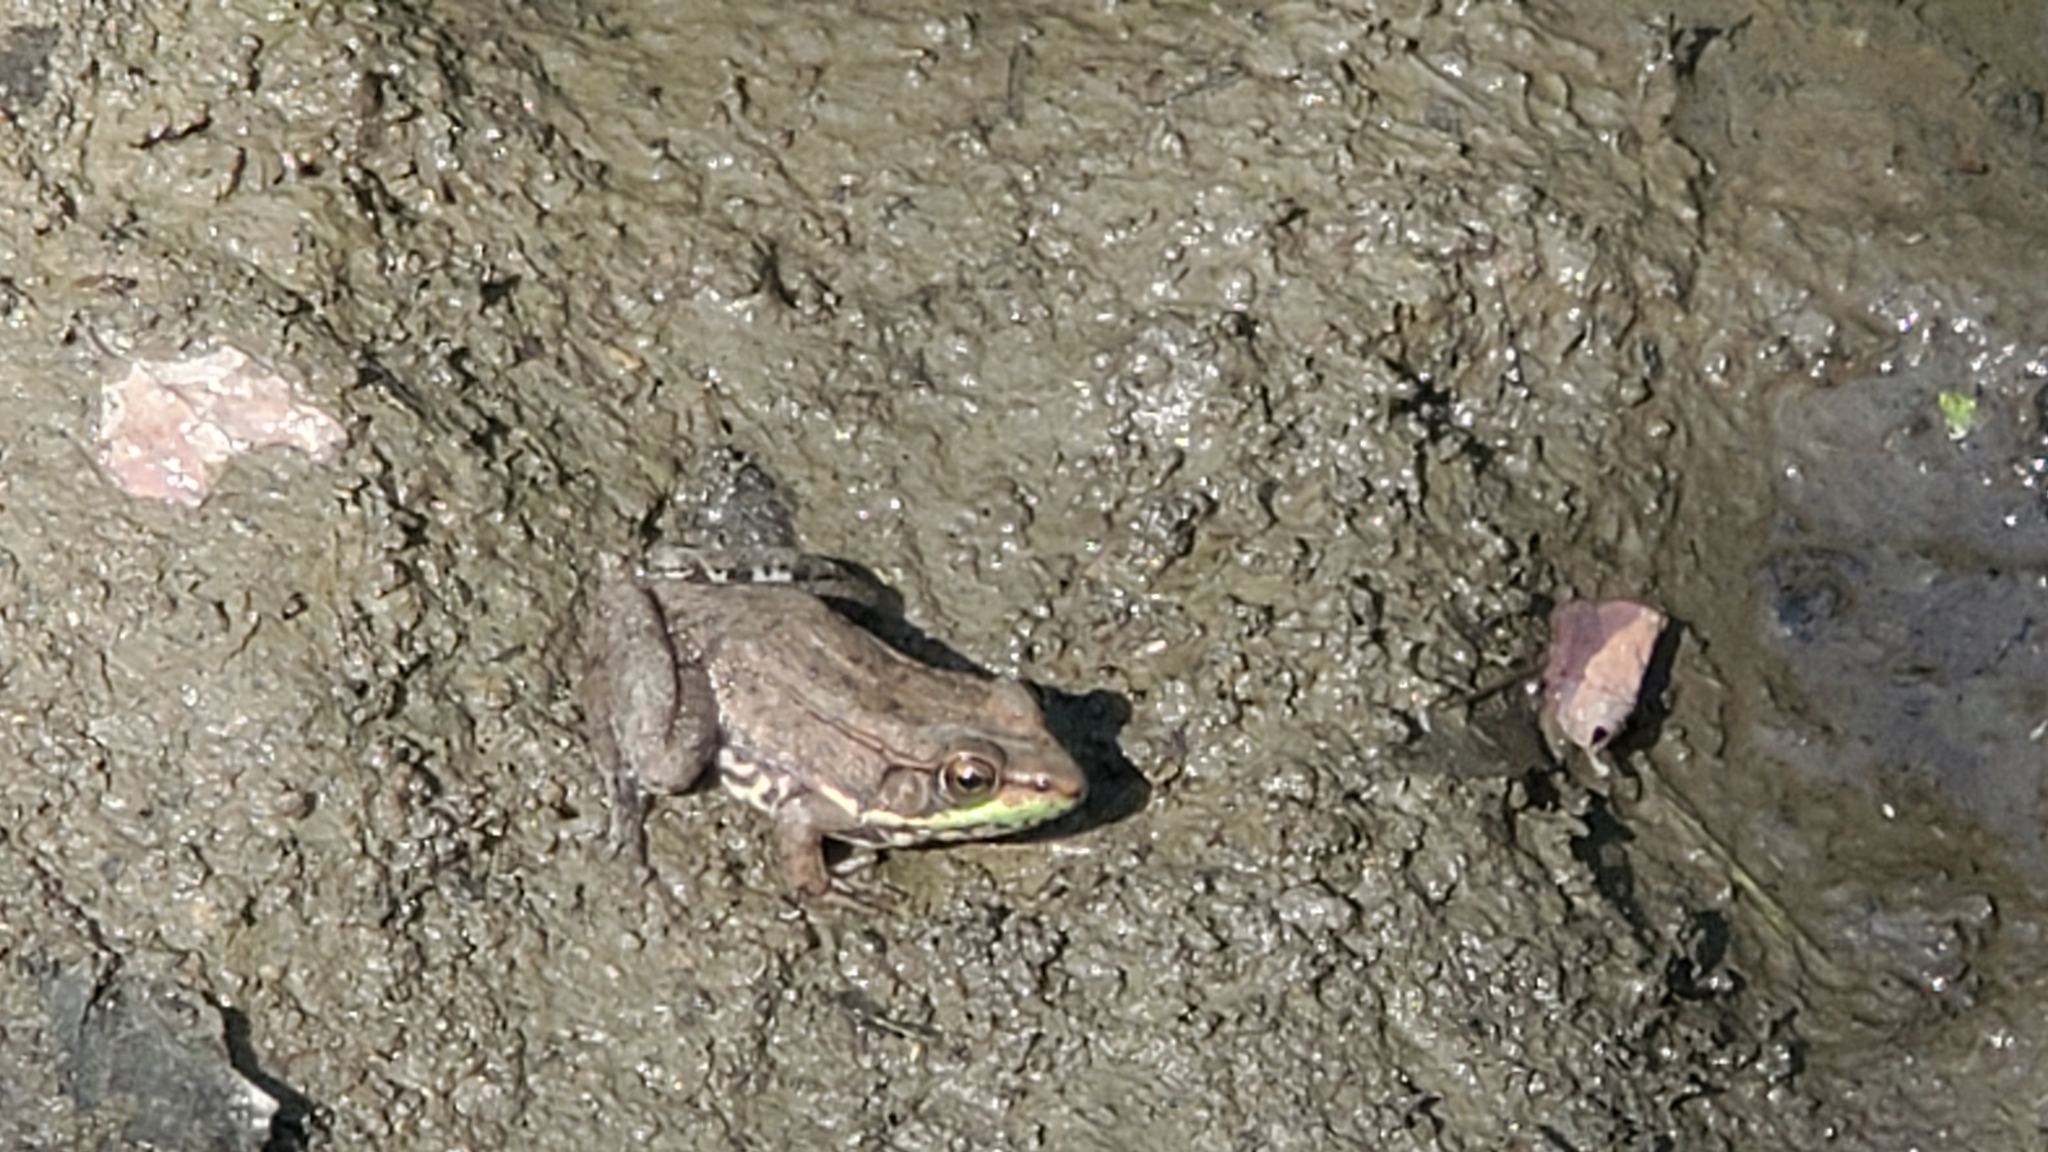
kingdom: Animalia
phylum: Chordata
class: Amphibia
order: Anura
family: Ranidae
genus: Lithobates
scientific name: Lithobates clamitans
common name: Green frog
